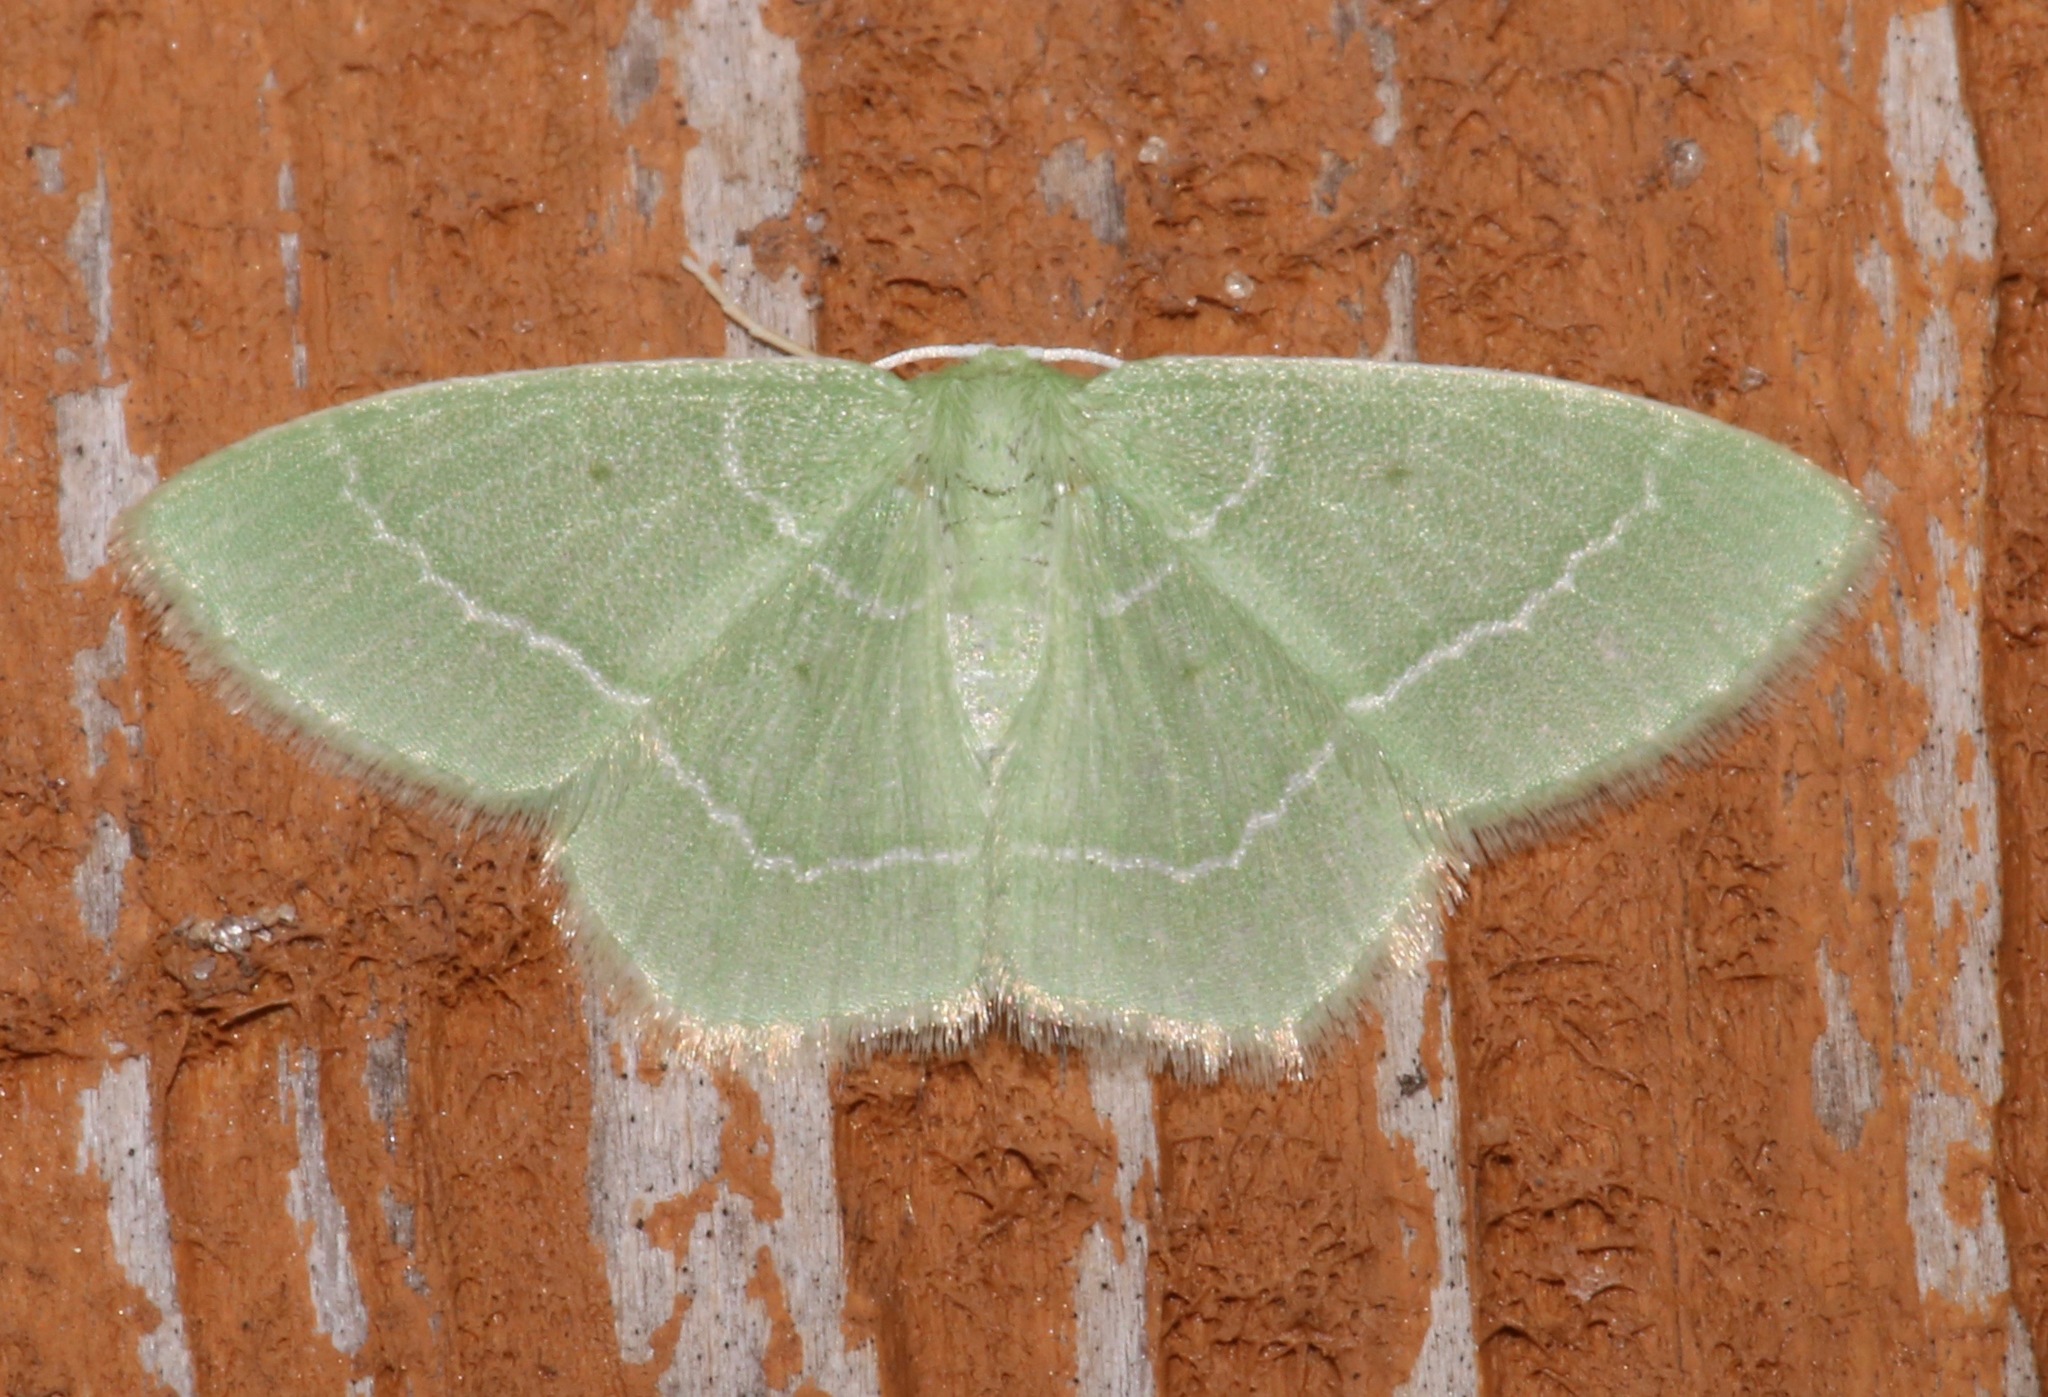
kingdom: Animalia
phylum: Arthropoda
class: Insecta
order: Lepidoptera
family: Geometridae
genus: Nemoria
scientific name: Nemoria elfa
